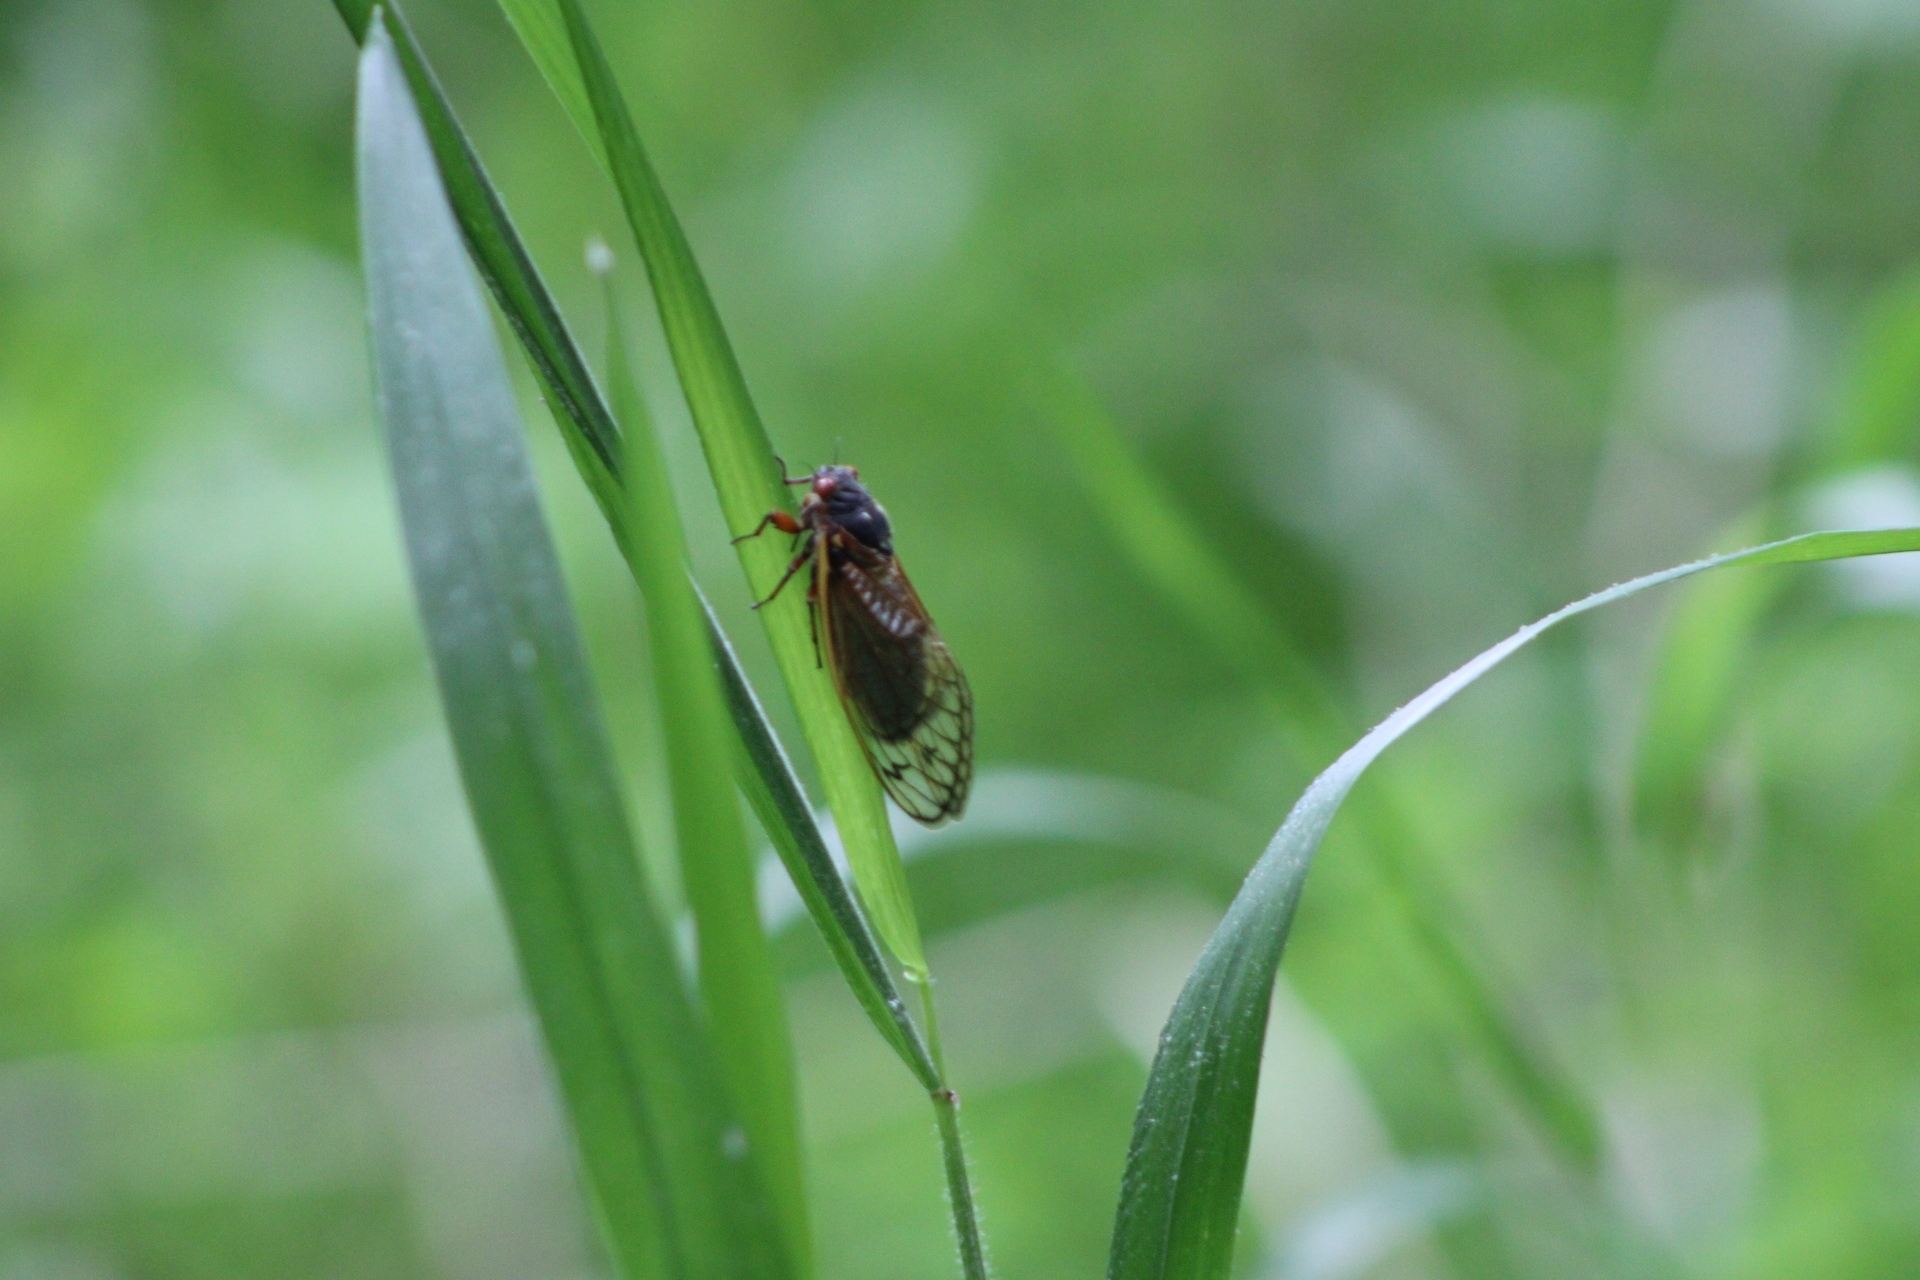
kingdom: Animalia
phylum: Arthropoda
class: Insecta
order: Hemiptera
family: Cicadidae
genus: Magicicada
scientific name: Magicicada septendecim
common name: Periodical cicada
